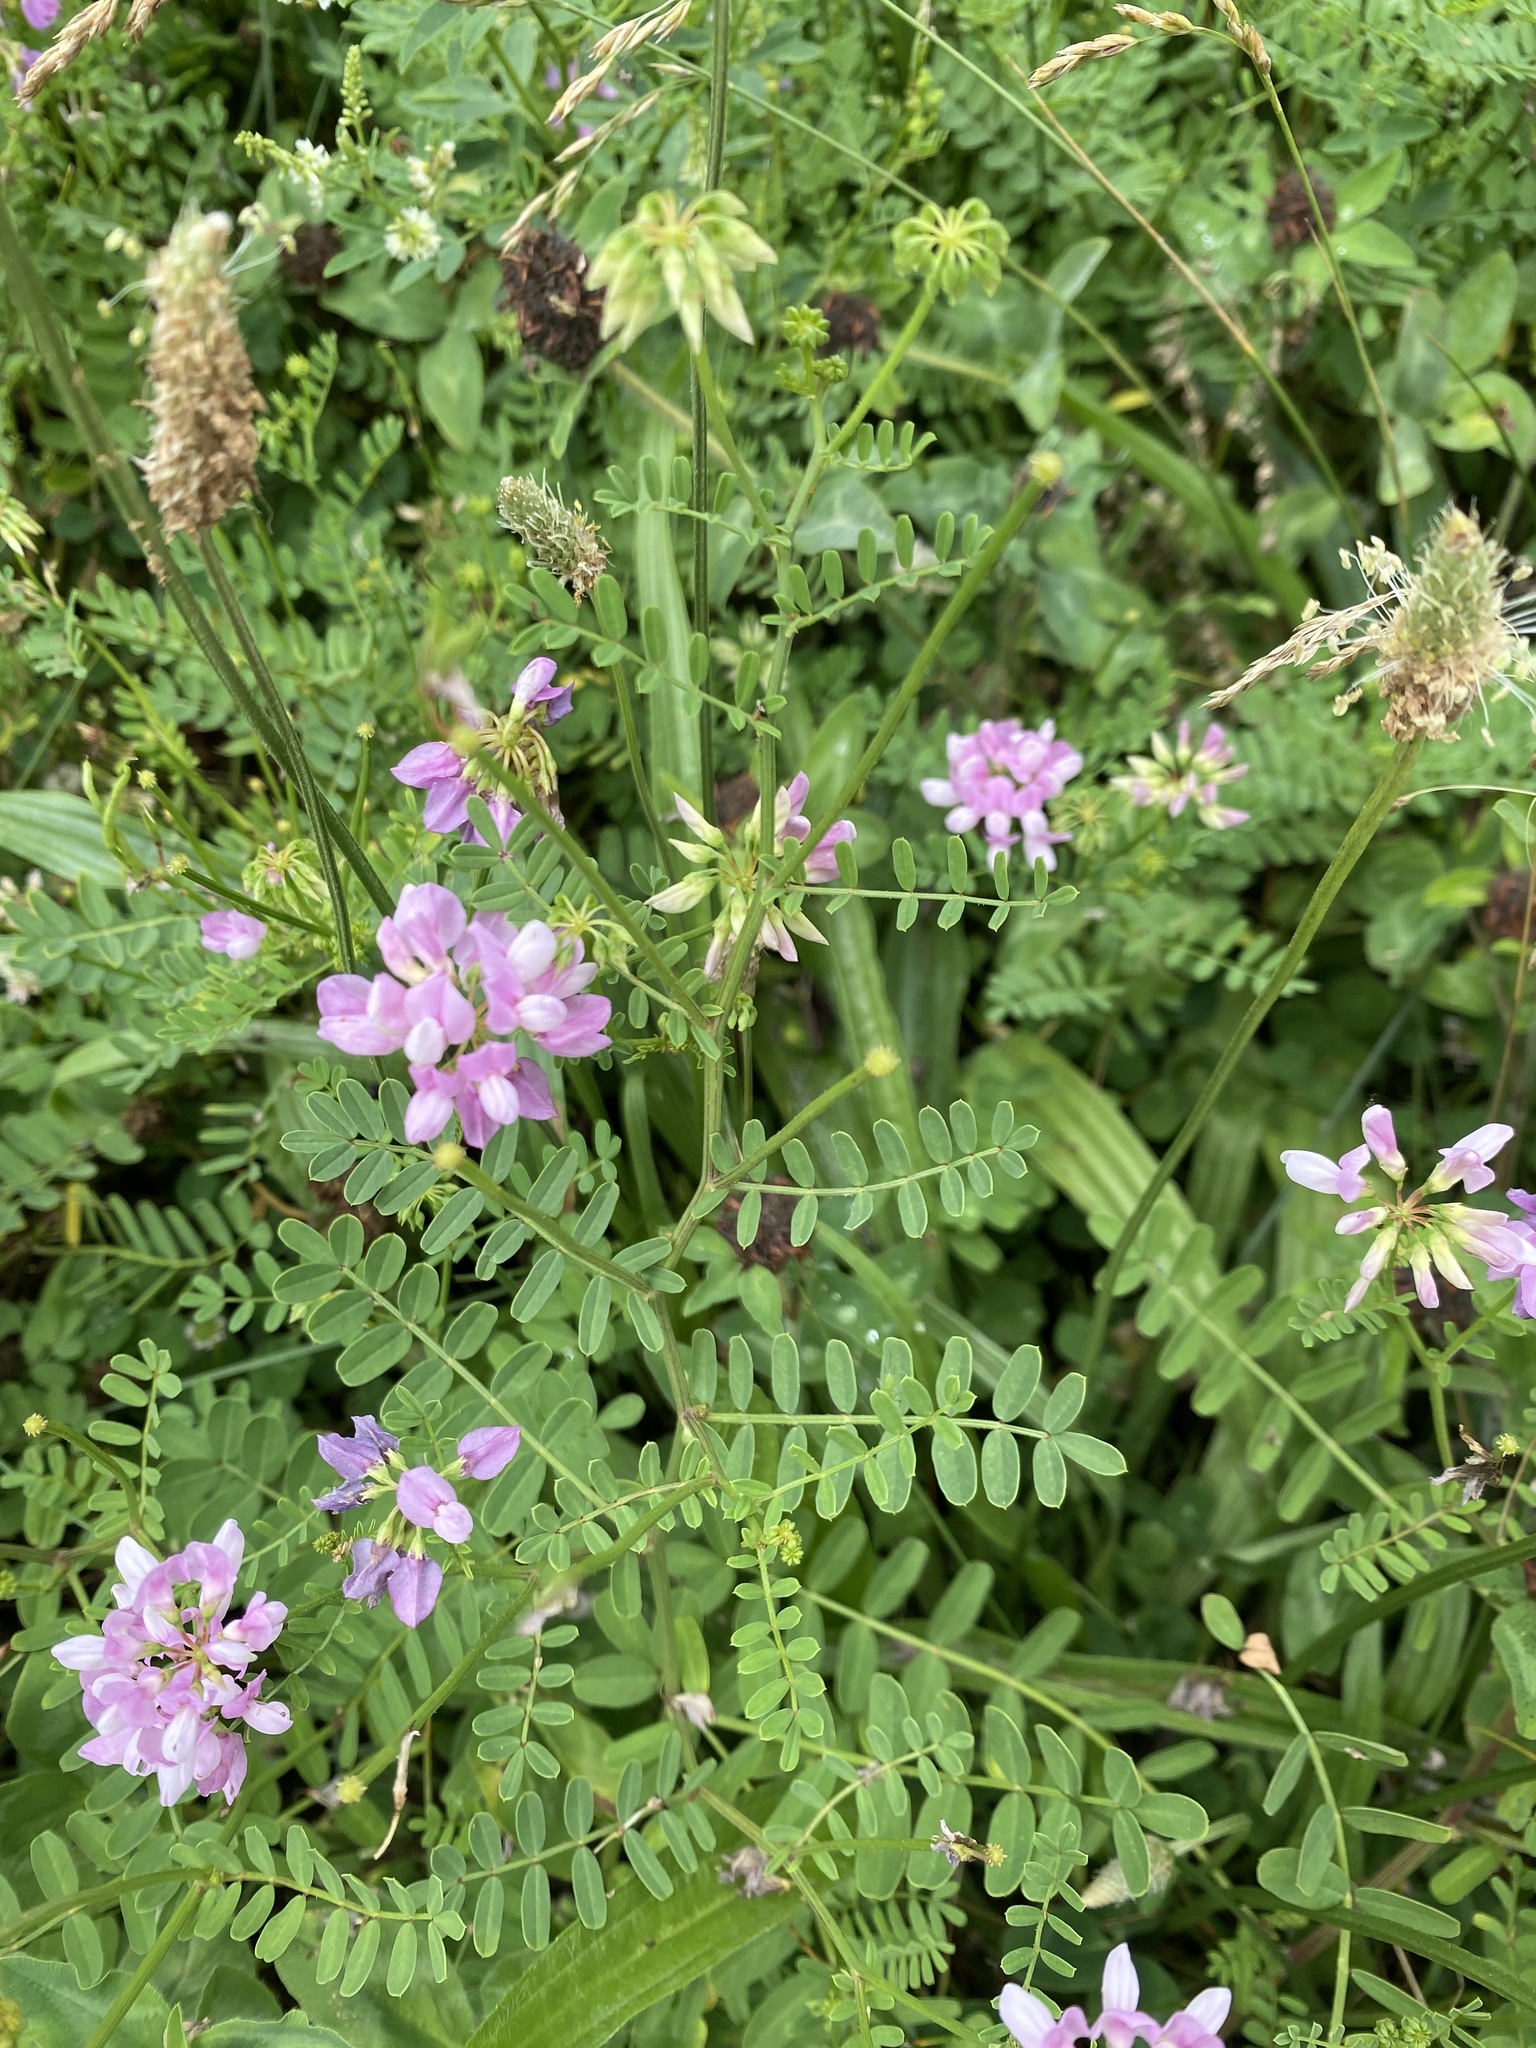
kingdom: Plantae
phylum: Tracheophyta
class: Magnoliopsida
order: Fabales
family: Fabaceae
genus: Coronilla
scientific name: Coronilla varia
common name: Crownvetch
